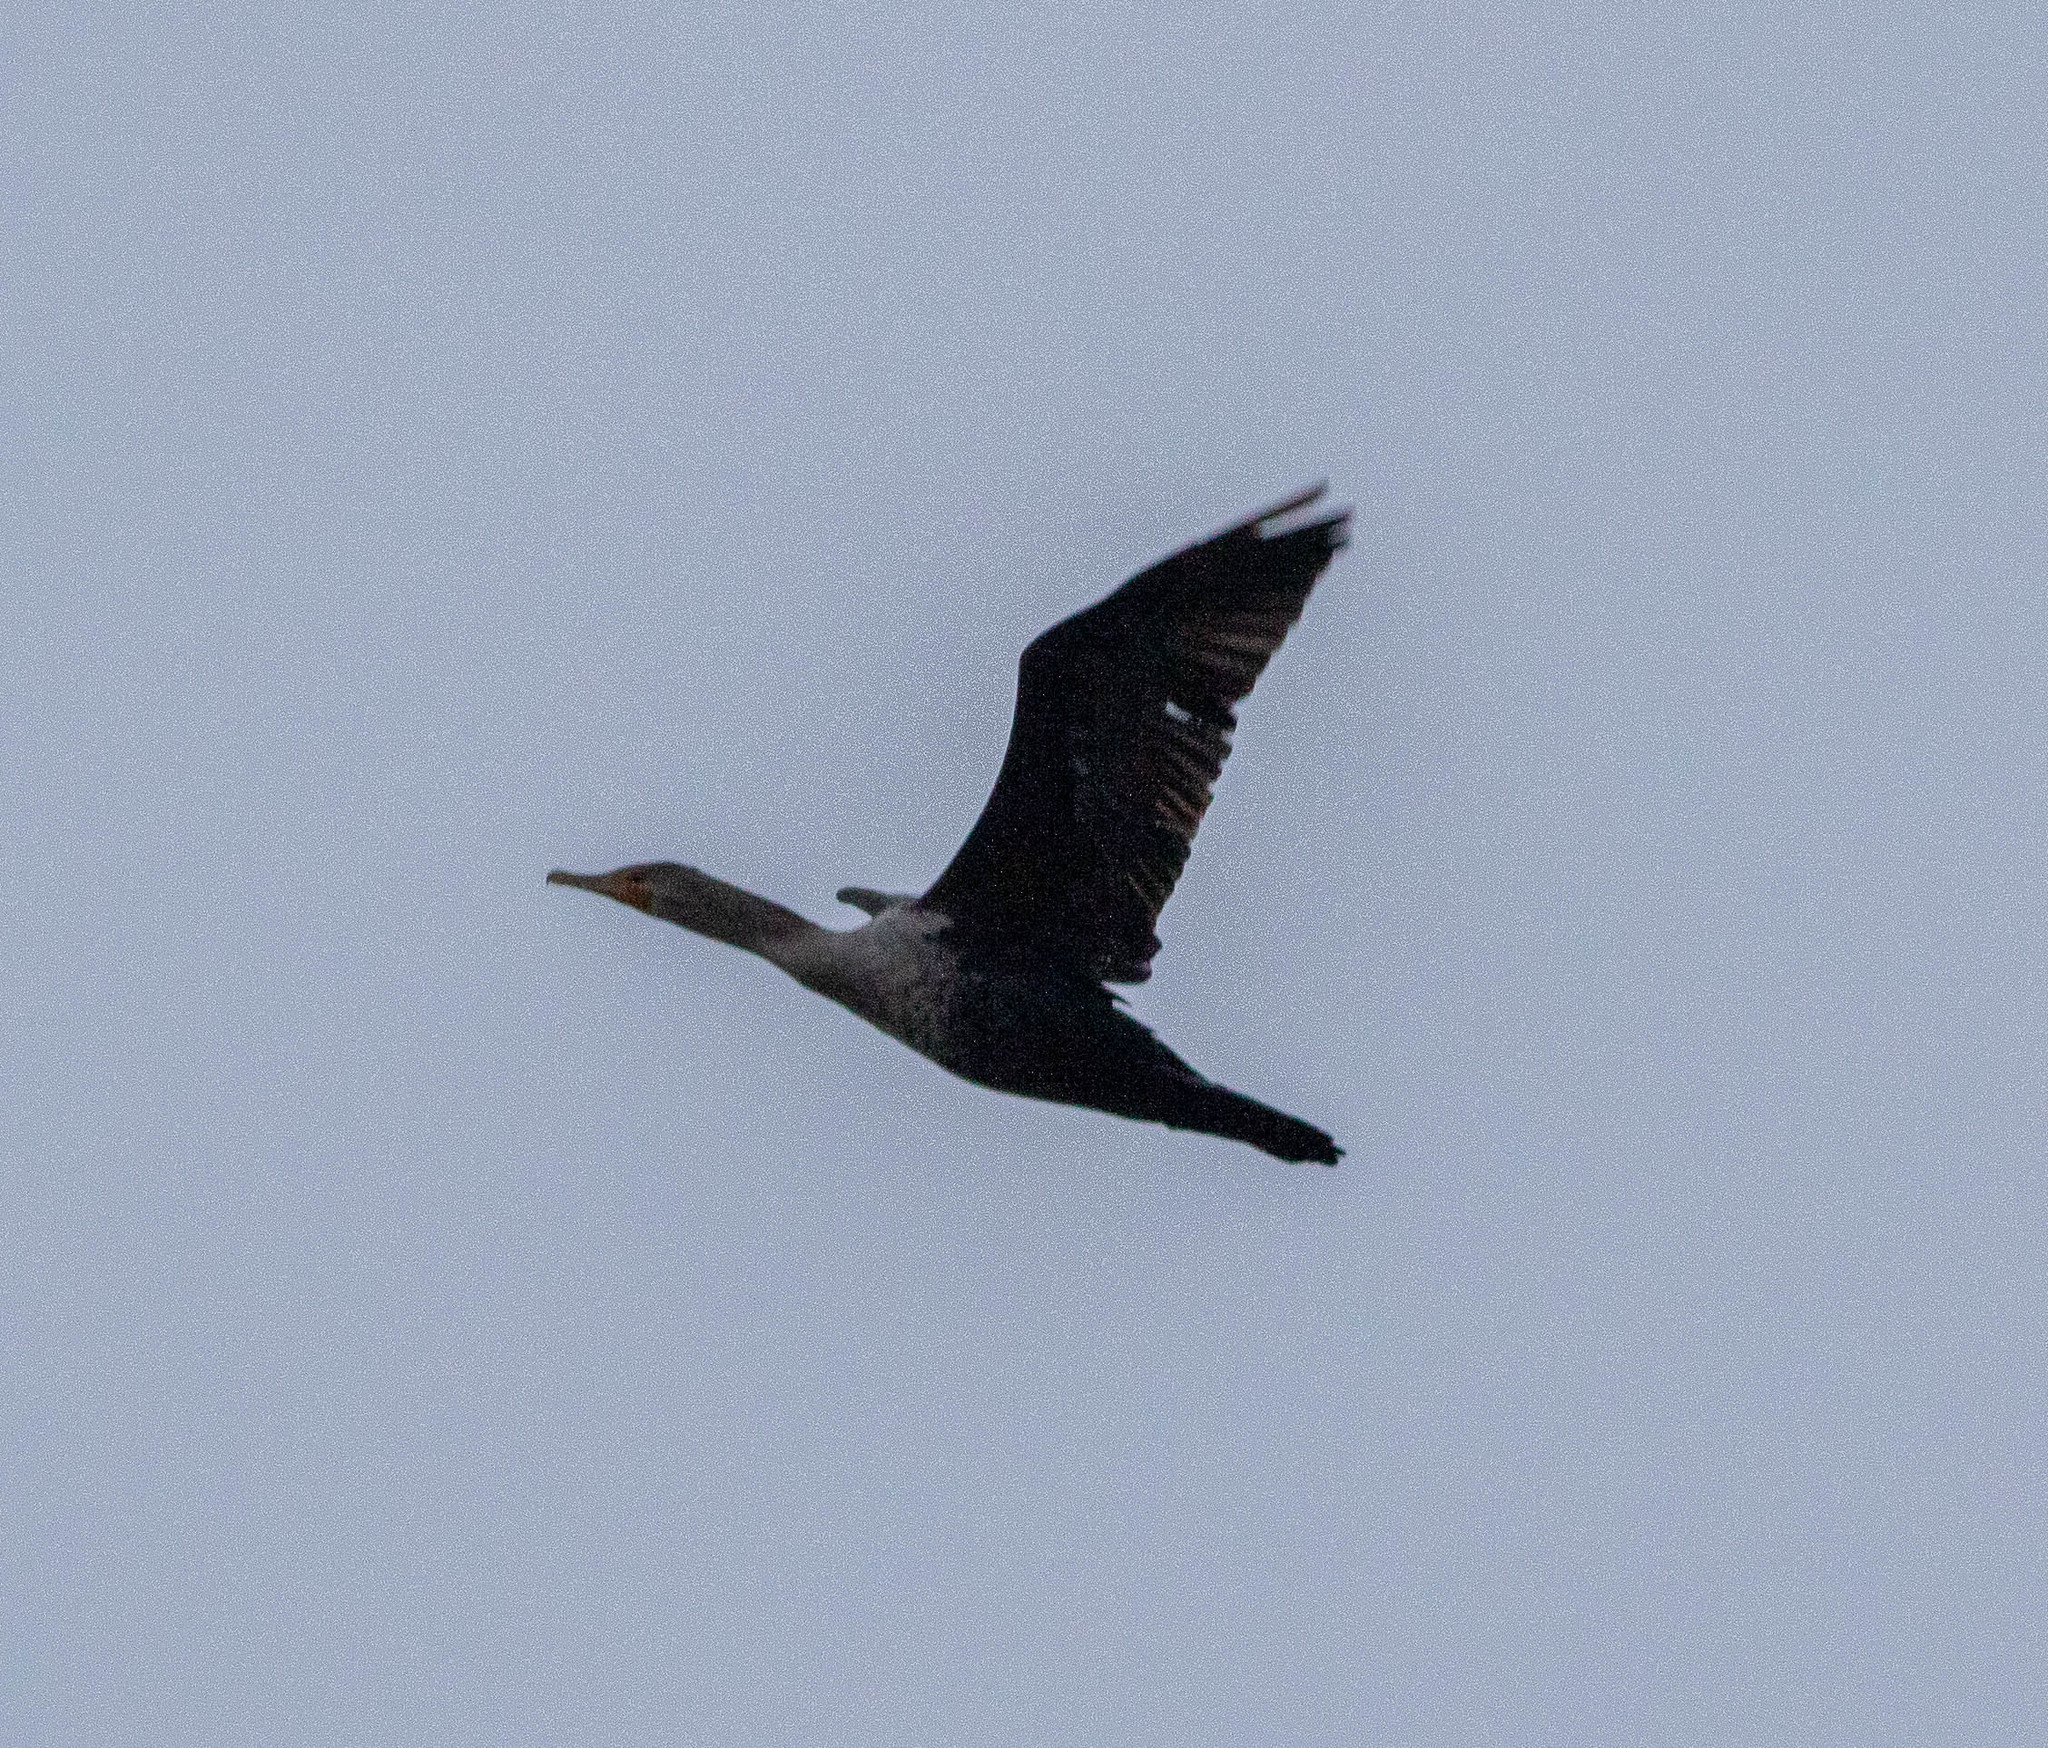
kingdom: Animalia
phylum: Chordata
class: Aves
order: Suliformes
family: Phalacrocoracidae
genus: Phalacrocorax
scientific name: Phalacrocorax auritus
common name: Double-crested cormorant
